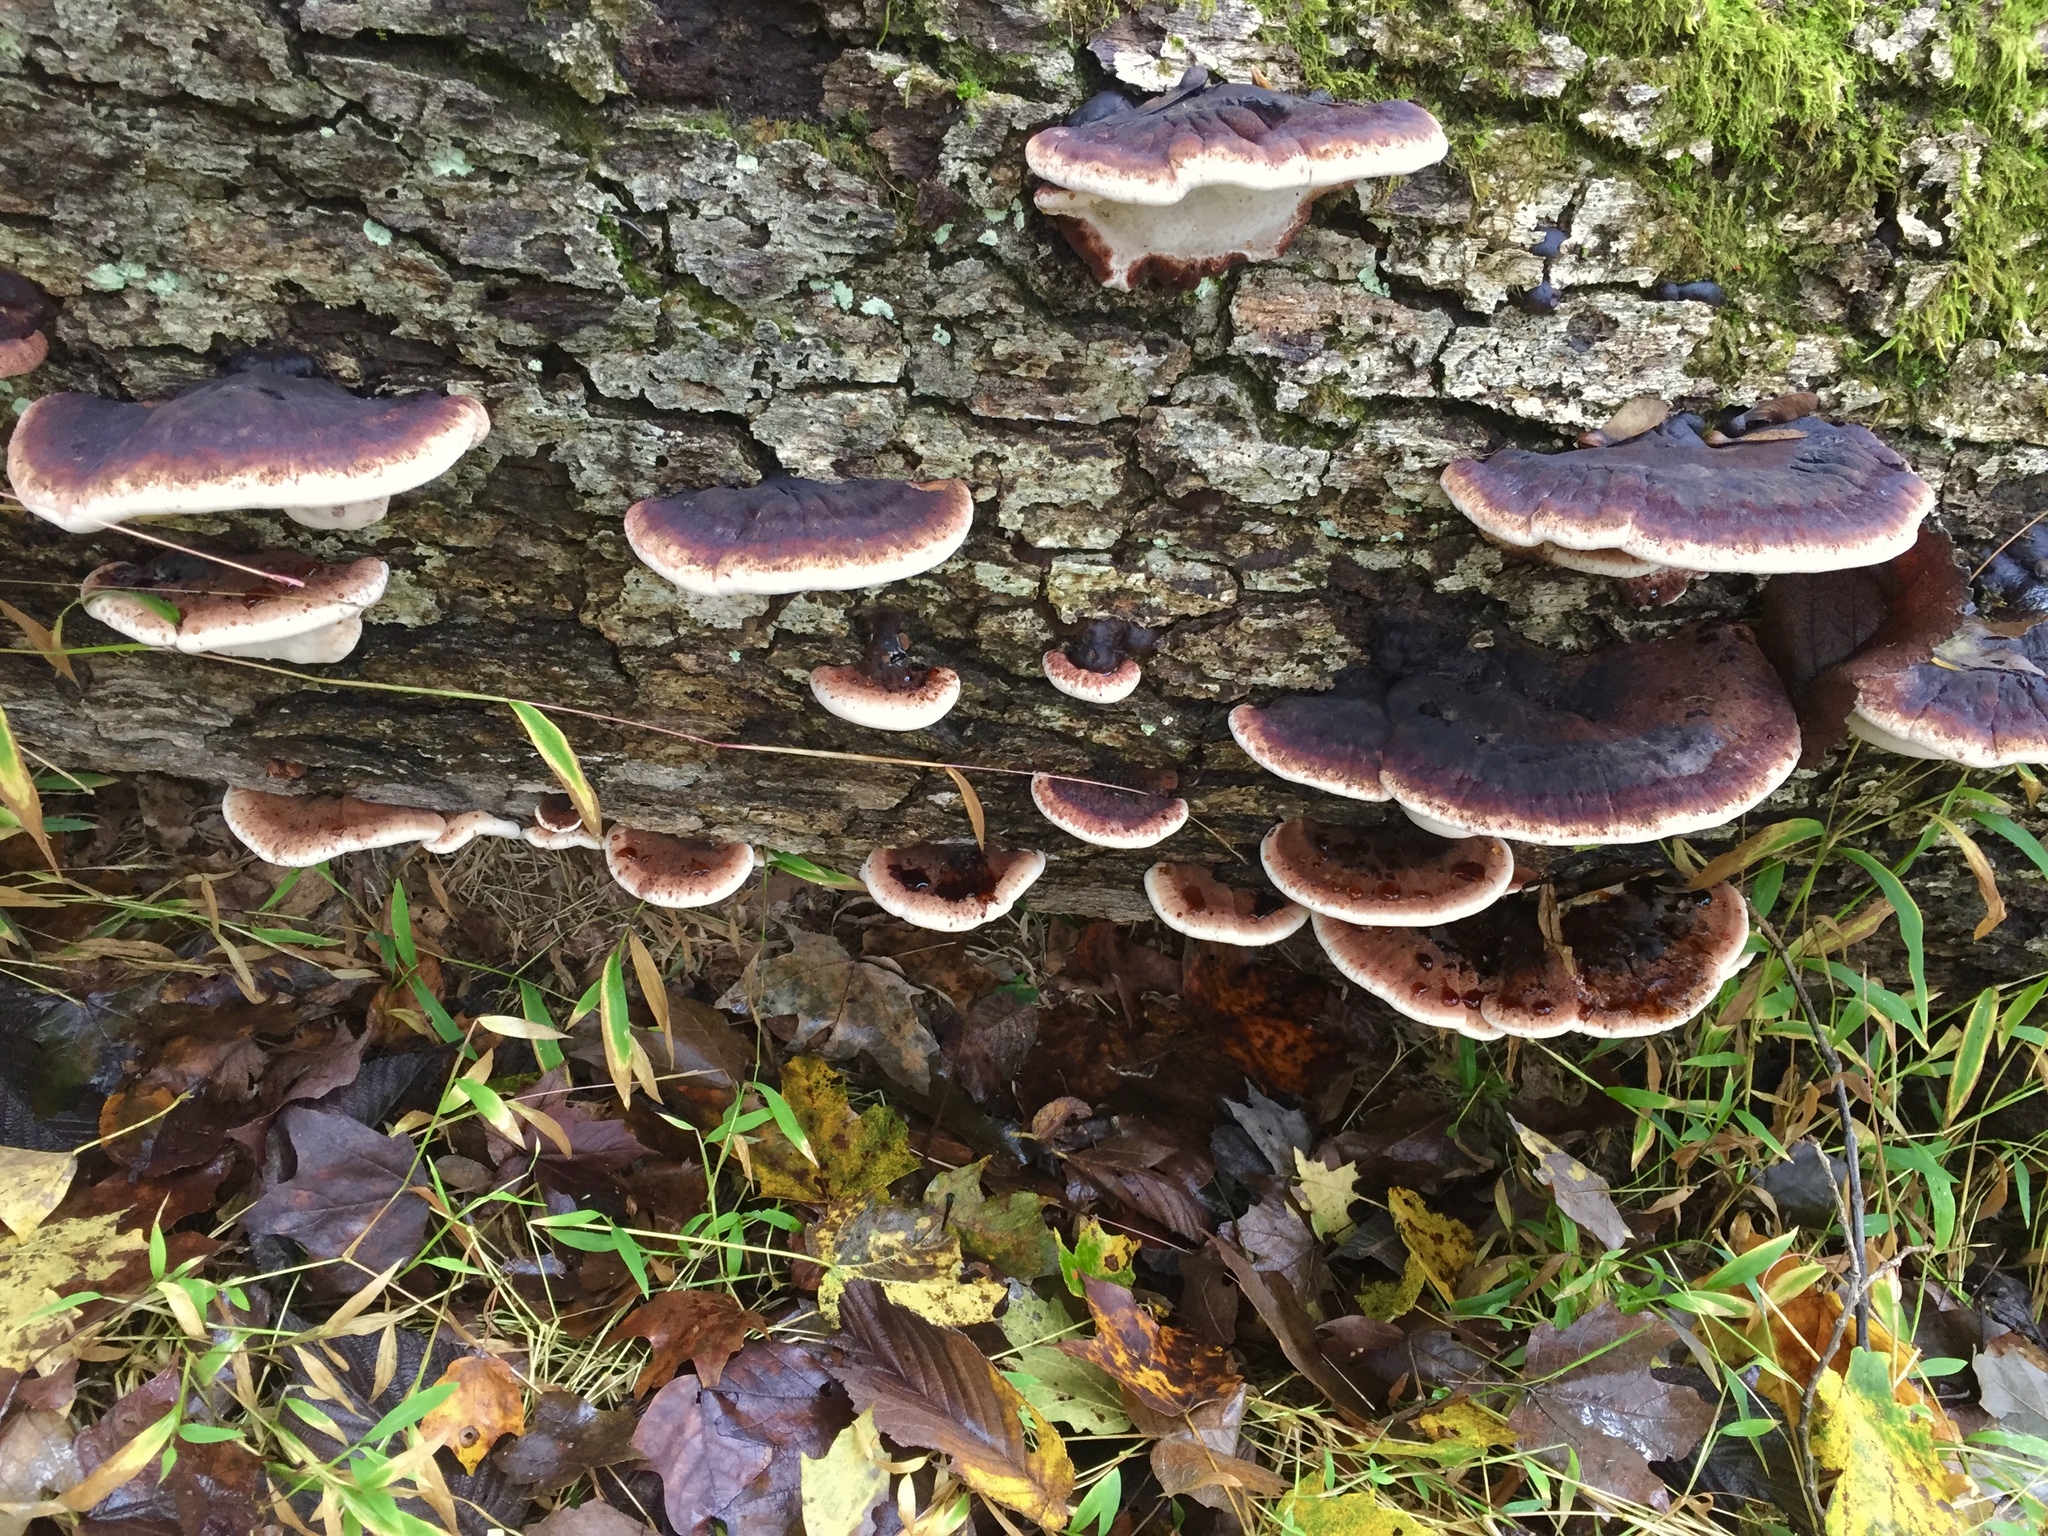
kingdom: Fungi
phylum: Basidiomycota
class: Agaricomycetes
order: Polyporales
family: Ischnodermataceae
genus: Ischnoderma
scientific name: Ischnoderma resinosum
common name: Resinous polypore
